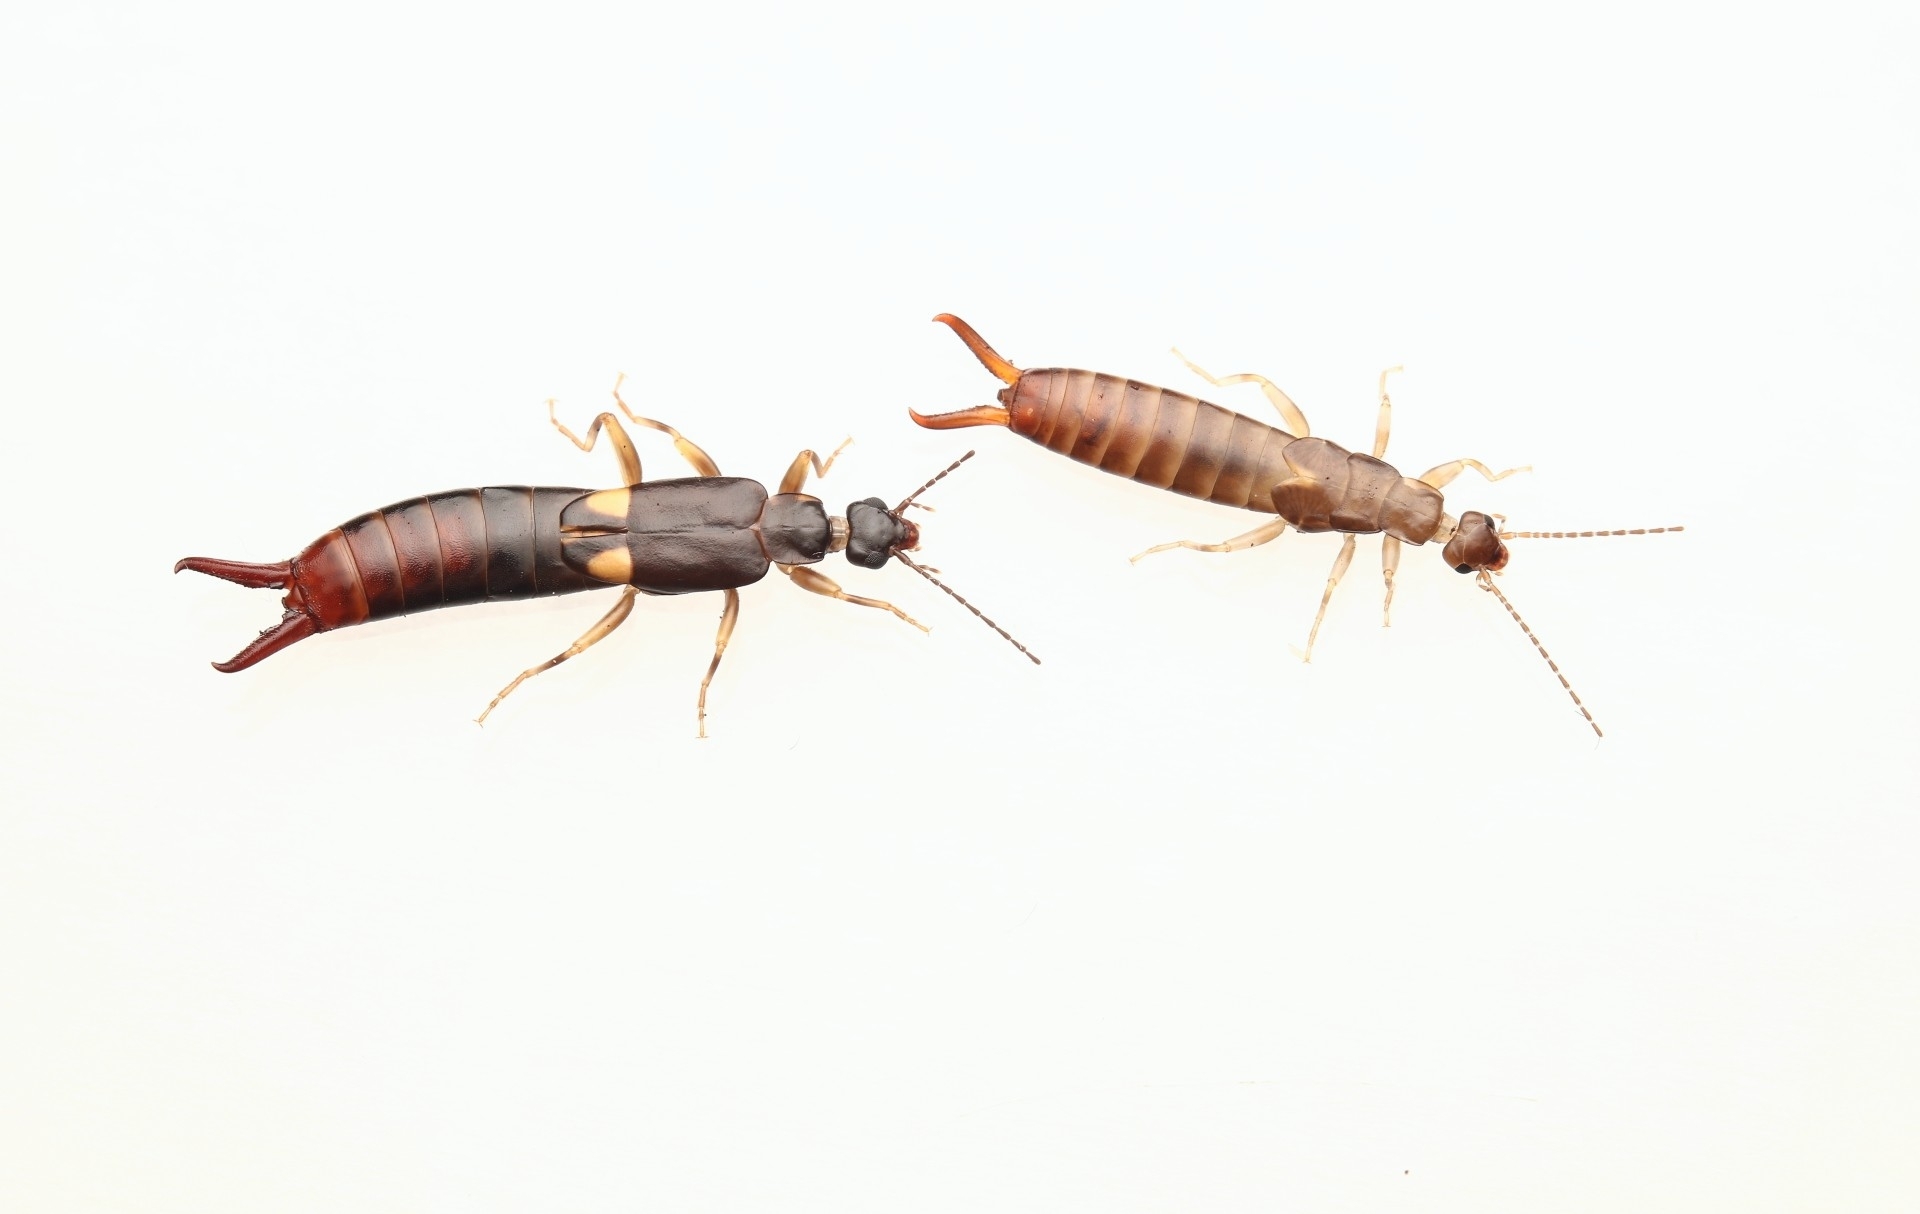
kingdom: Animalia
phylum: Arthropoda
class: Insecta
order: Dermaptera
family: Spongiphoridae
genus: Vostox
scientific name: Vostox brunneipennis
